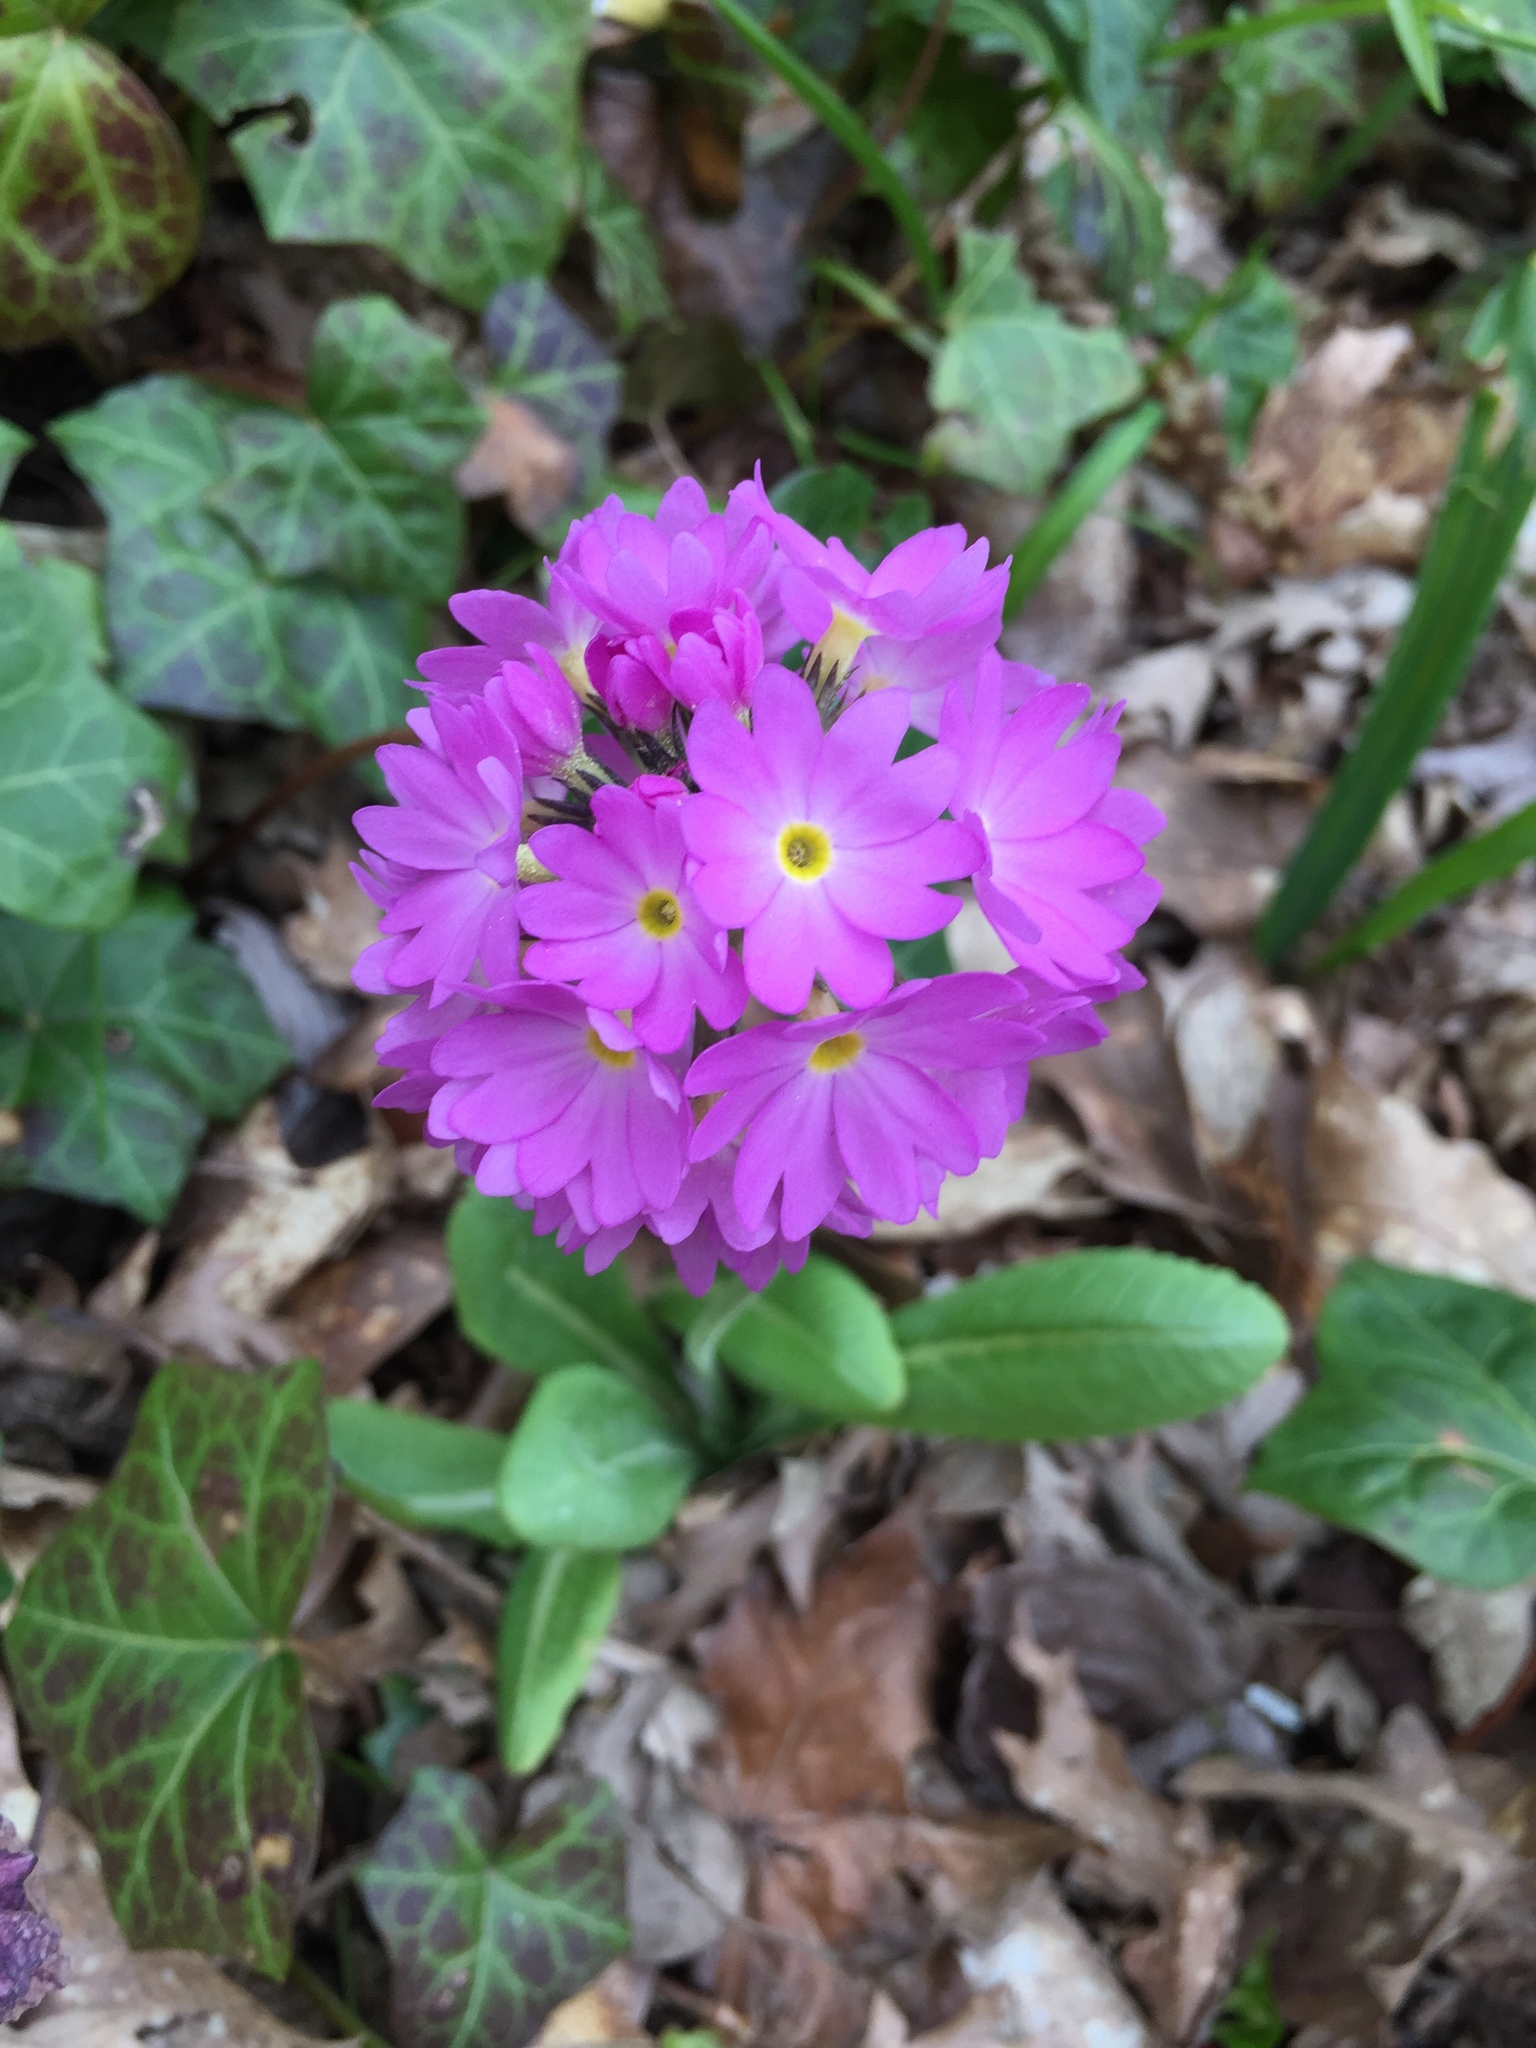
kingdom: Plantae
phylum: Tracheophyta
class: Magnoliopsida
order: Ericales
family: Primulaceae
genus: Primula
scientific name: Primula denticulata
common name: Drumstick primula
